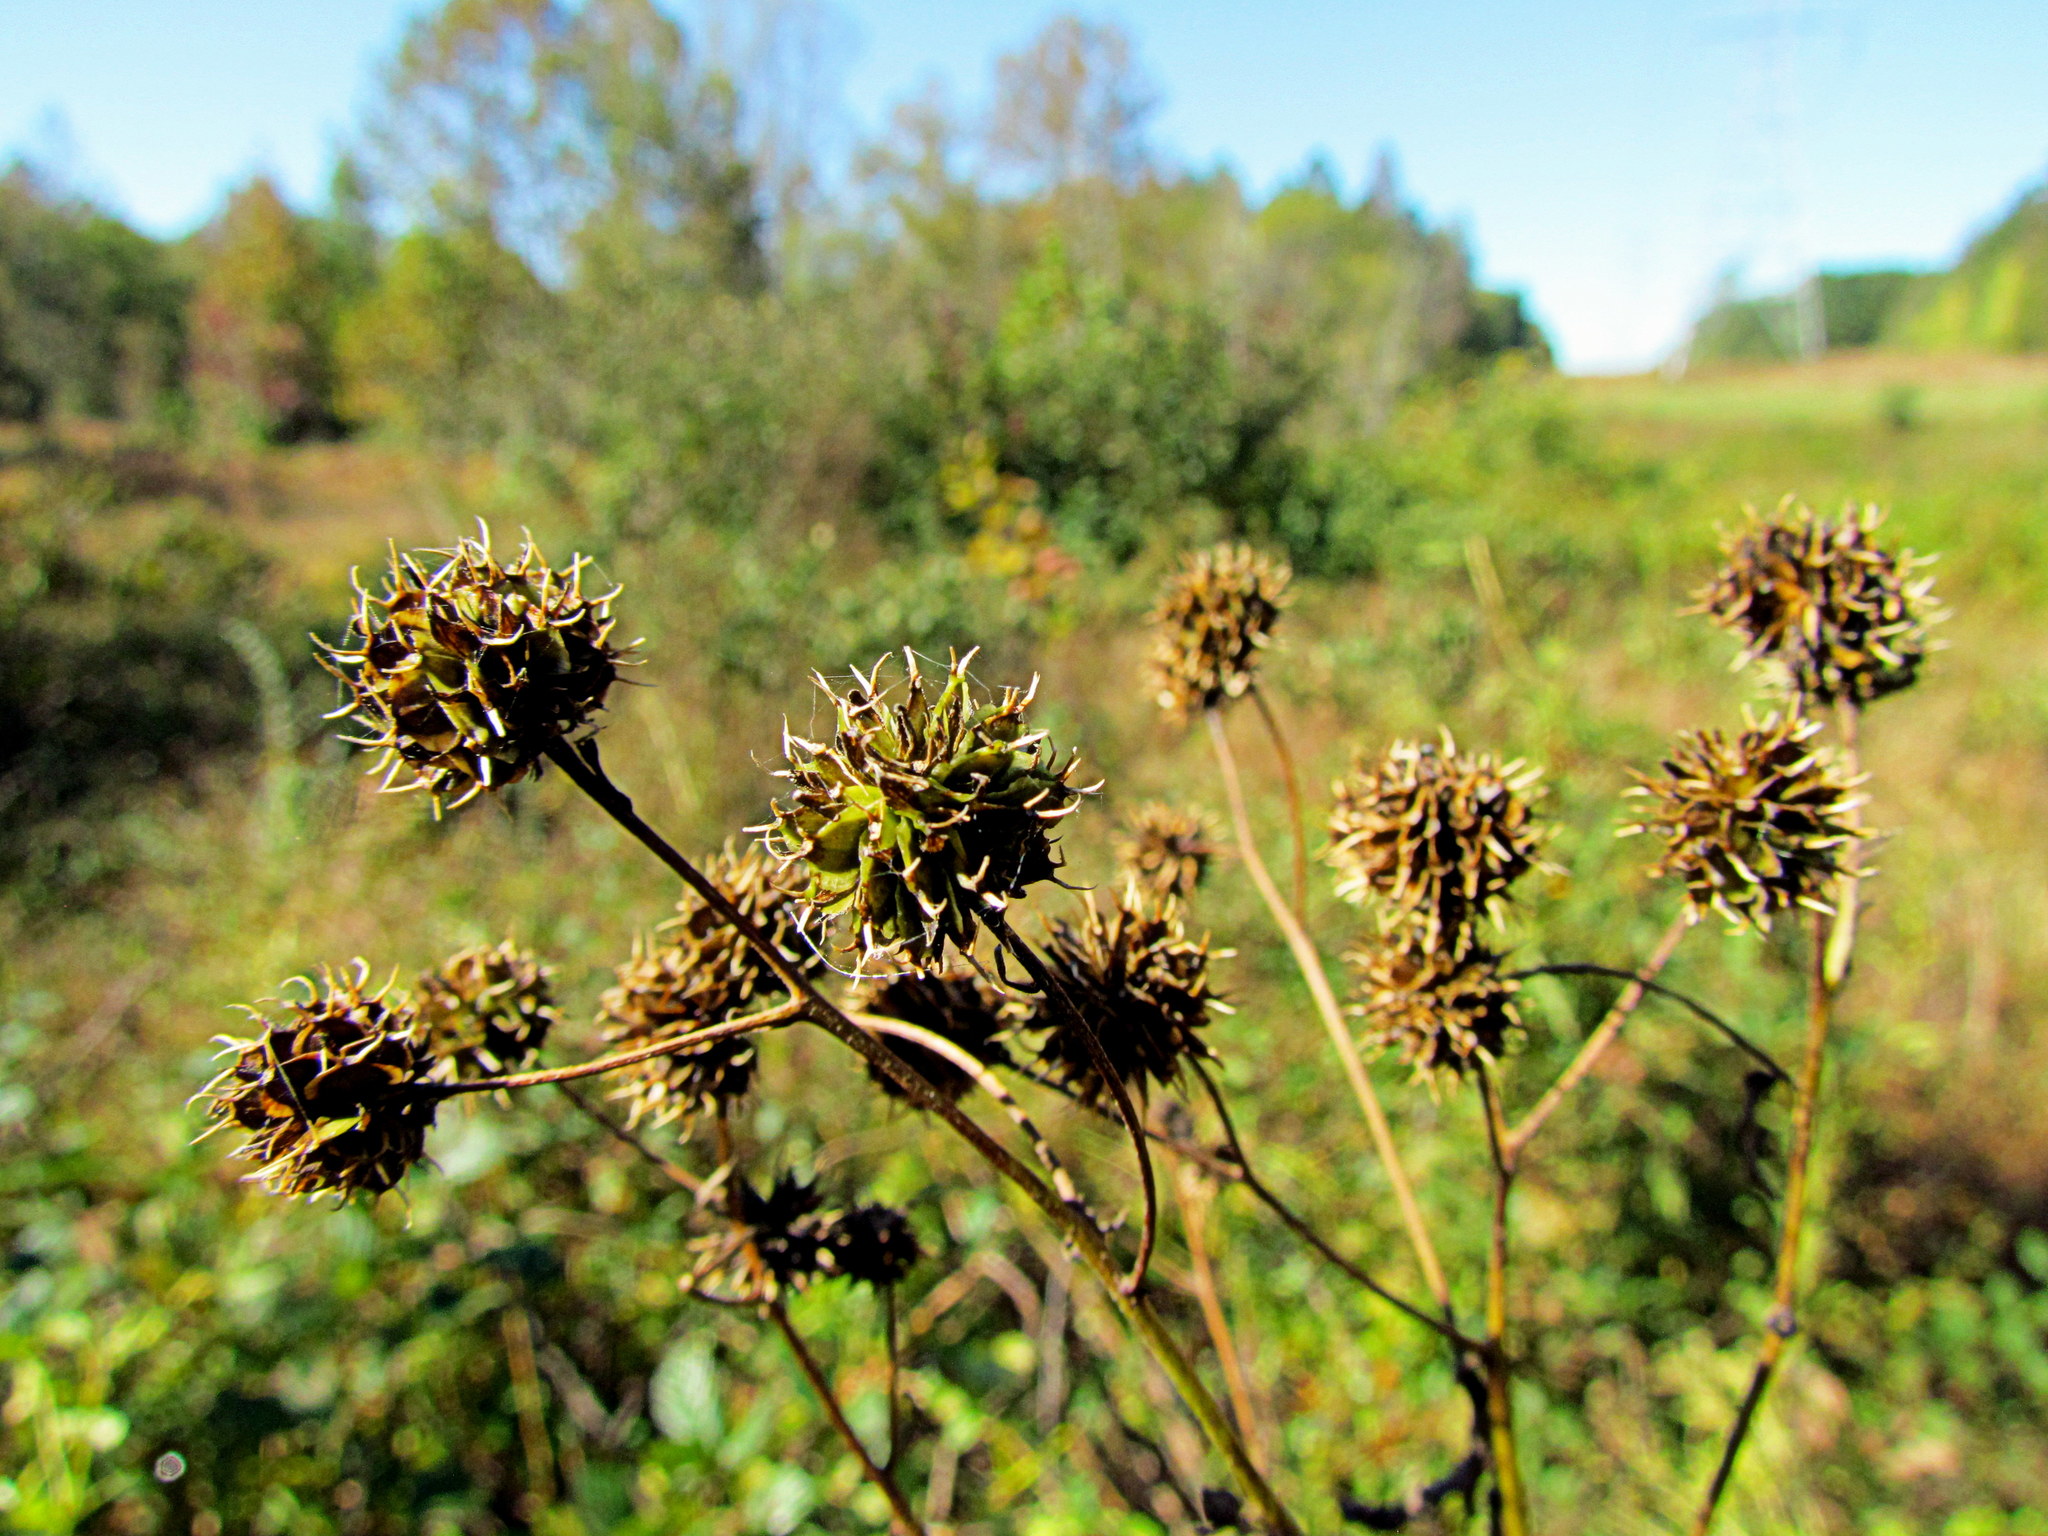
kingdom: Plantae
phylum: Tracheophyta
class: Magnoliopsida
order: Asterales
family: Asteraceae
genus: Verbesina
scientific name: Verbesina alternifolia
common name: Wingstem
